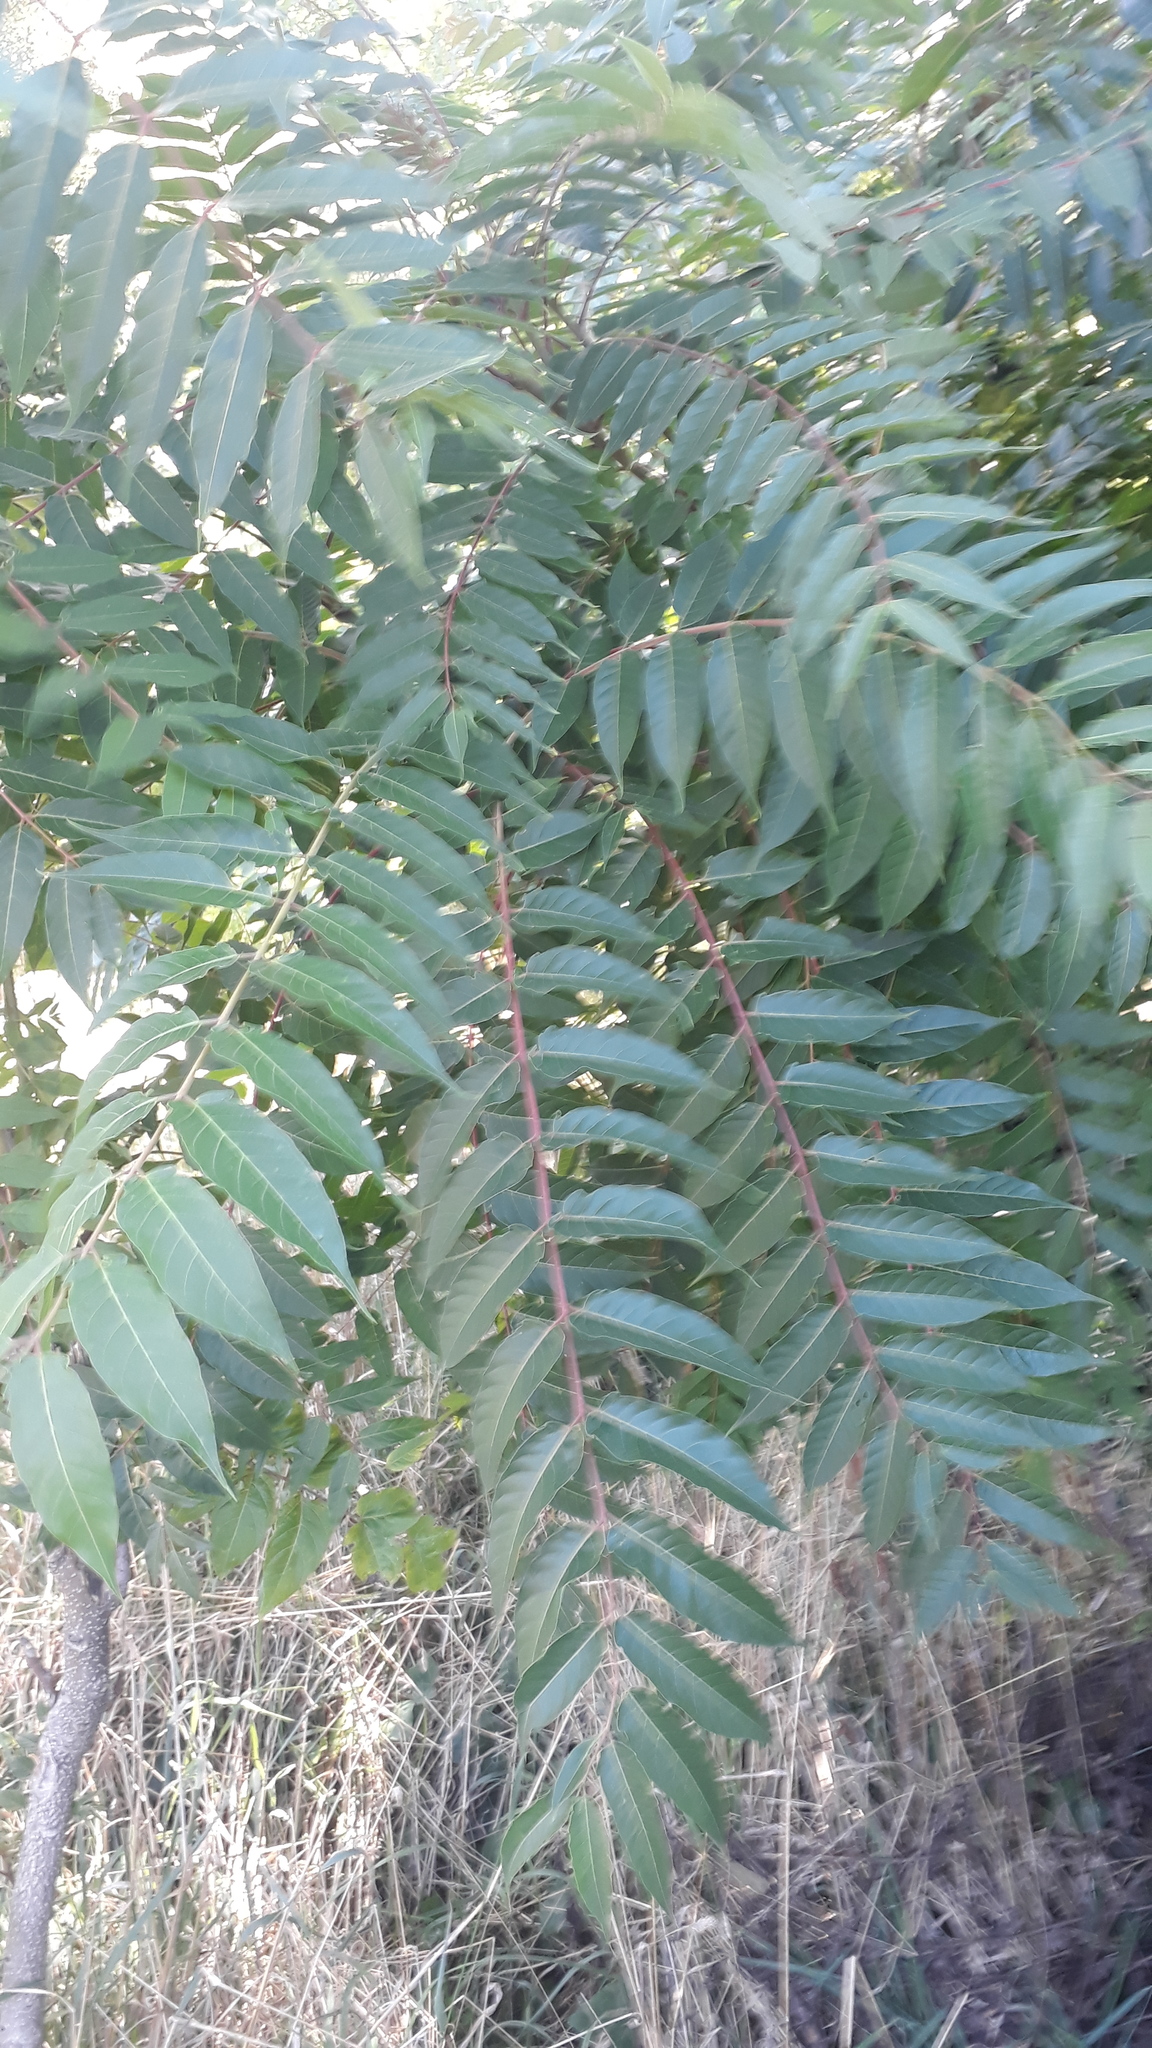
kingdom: Plantae
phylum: Tracheophyta
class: Magnoliopsida
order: Sapindales
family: Simaroubaceae
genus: Ailanthus
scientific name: Ailanthus altissima
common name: Tree-of-heaven
